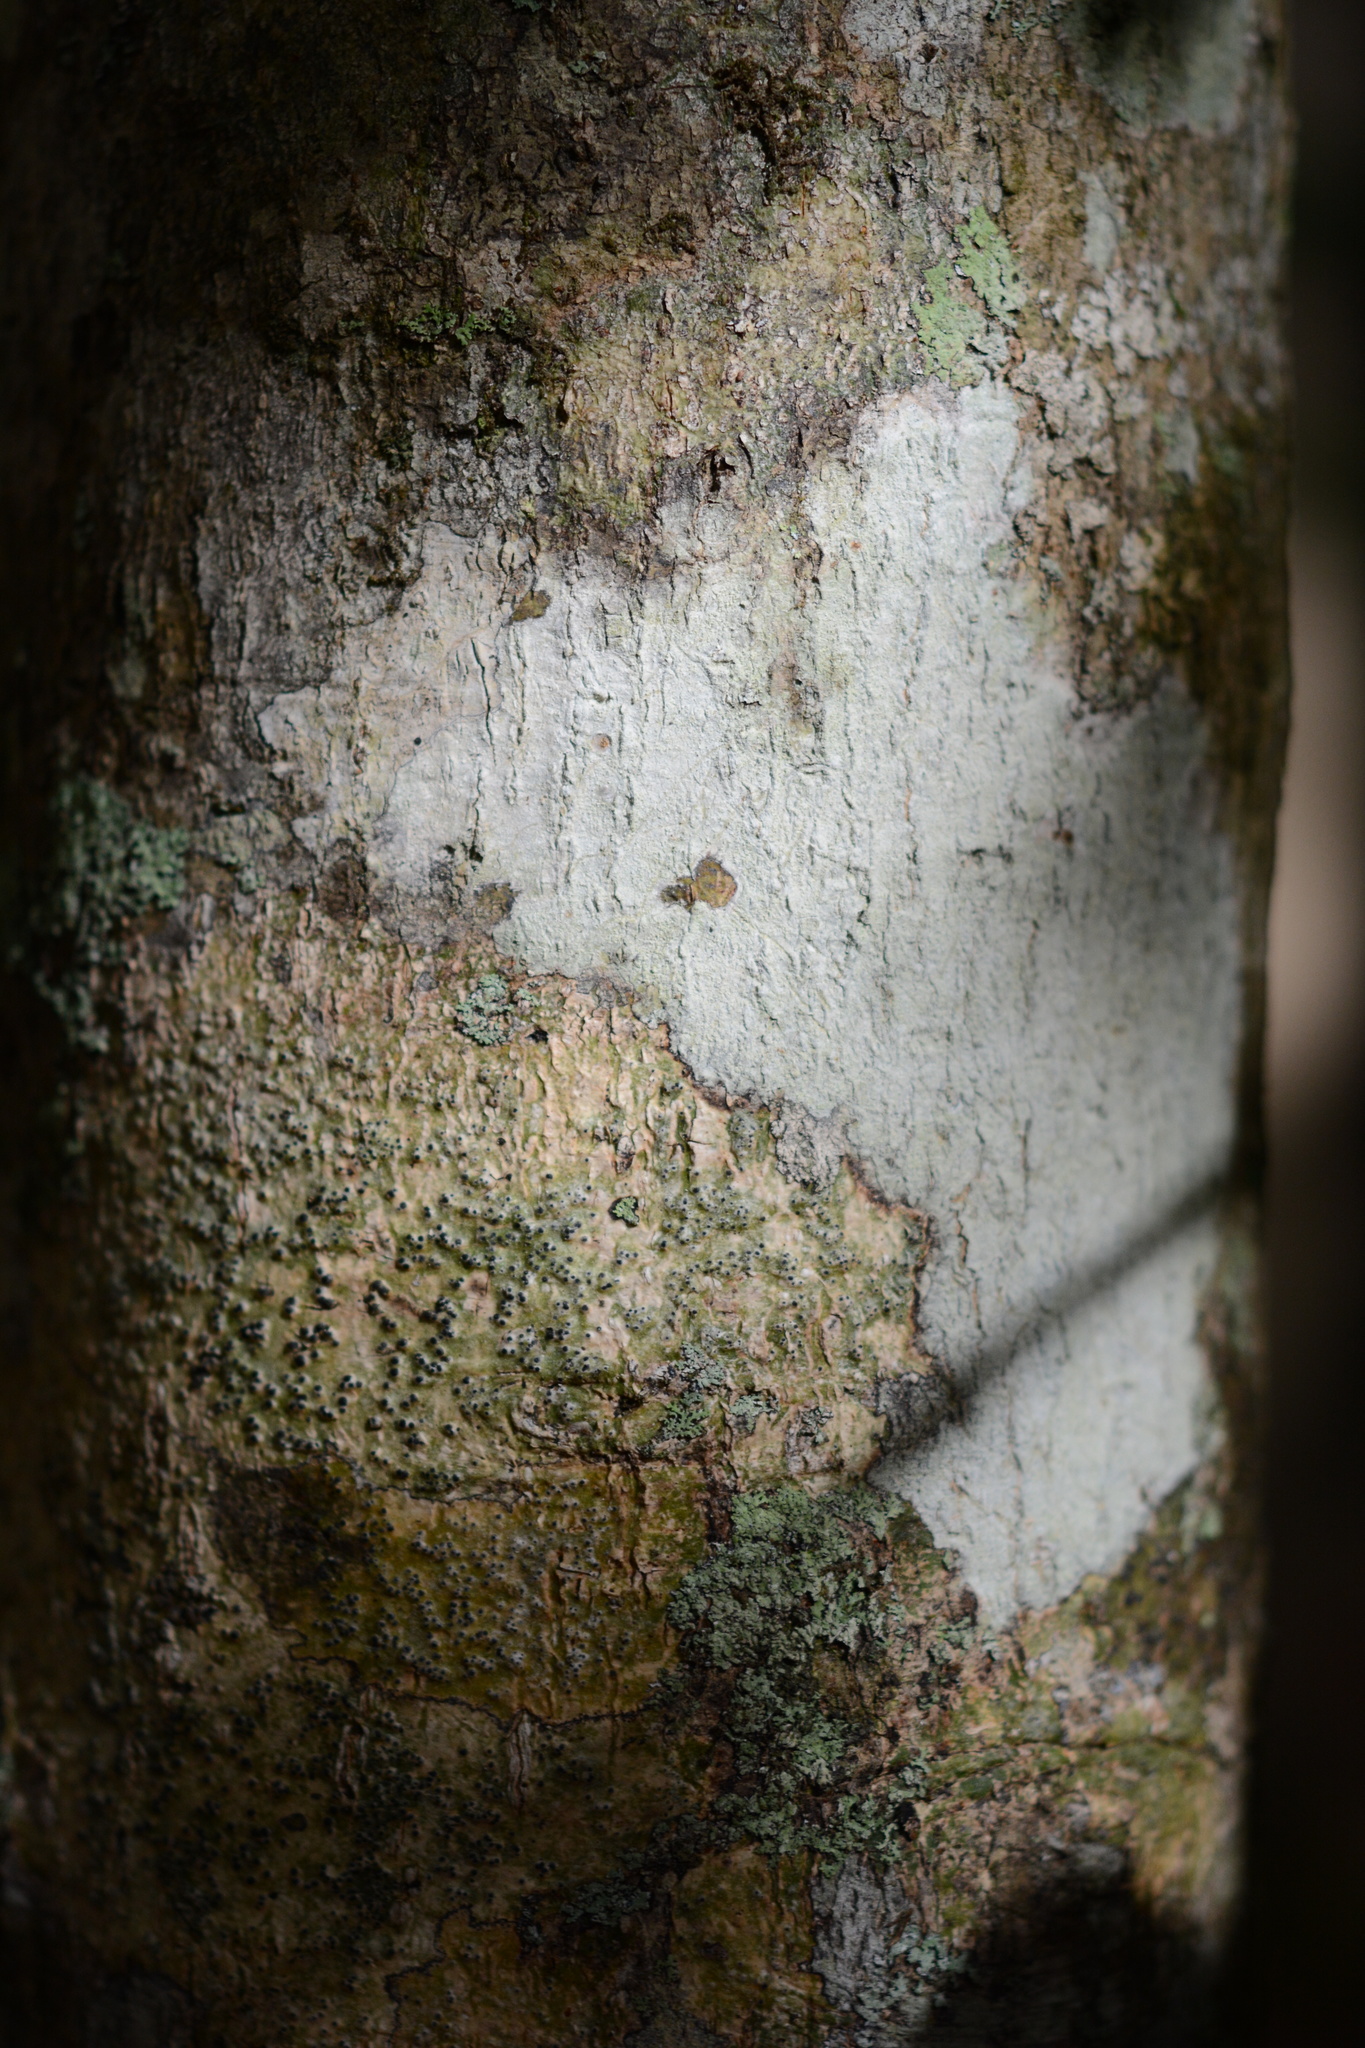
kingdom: Plantae
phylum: Tracheophyta
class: Magnoliopsida
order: Aquifoliales
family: Aquifoliaceae
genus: Ilex
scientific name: Ilex opaca
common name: American holly
